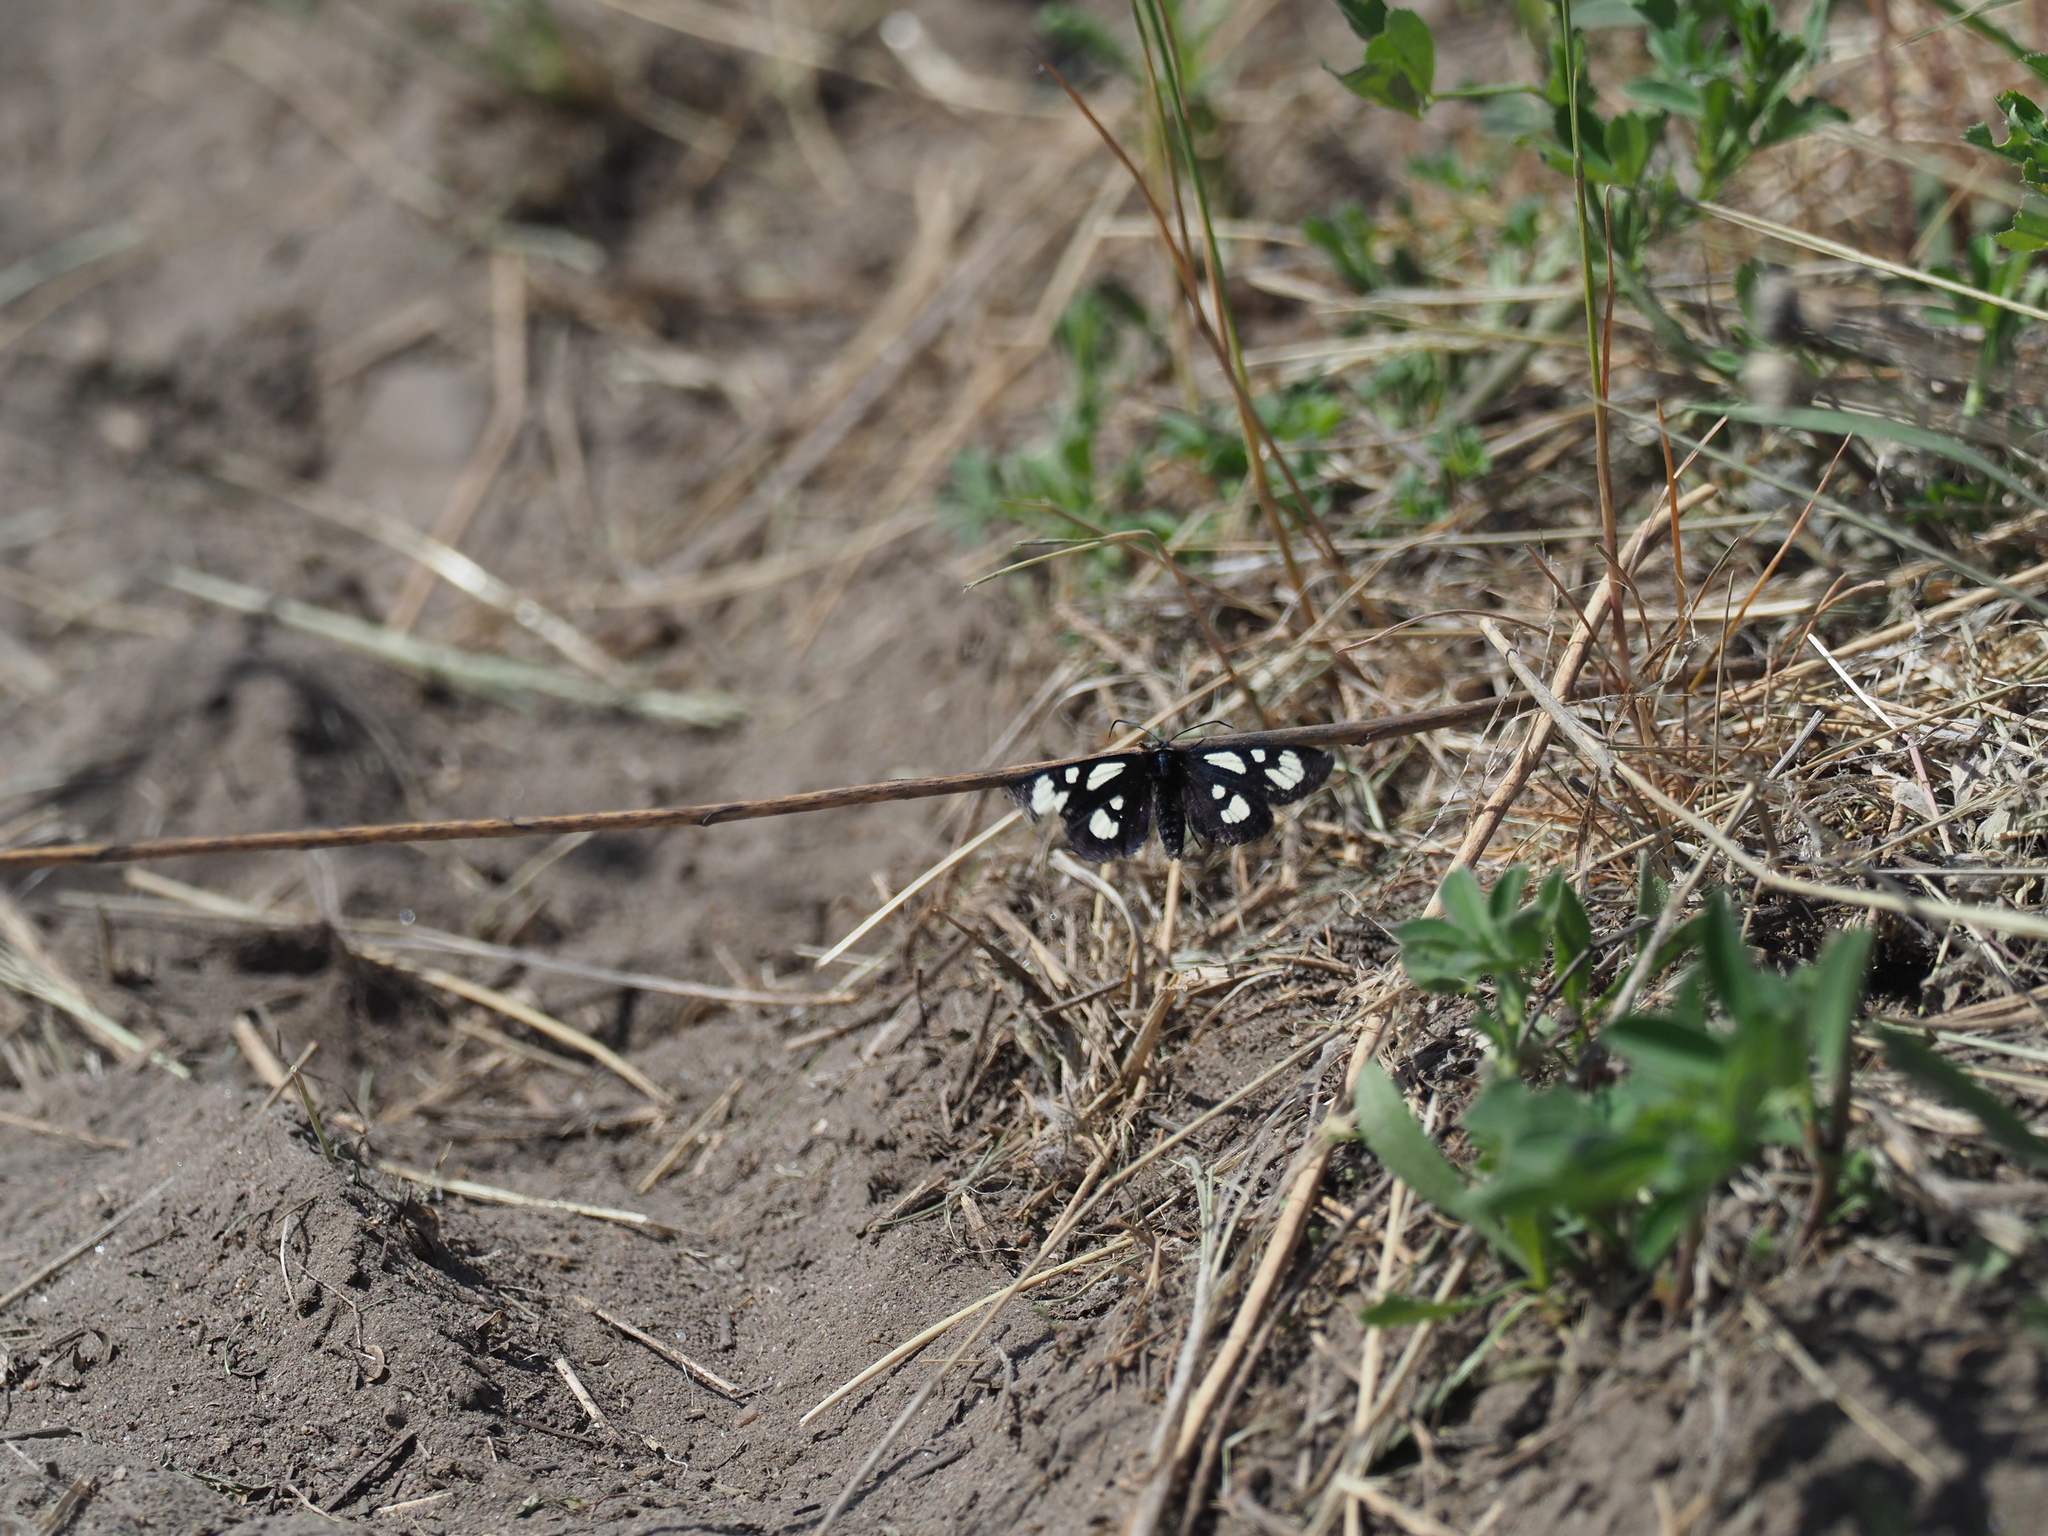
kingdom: Animalia
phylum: Arthropoda
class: Insecta
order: Lepidoptera
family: Noctuidae
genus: Alypia
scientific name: Alypia ridingsii
